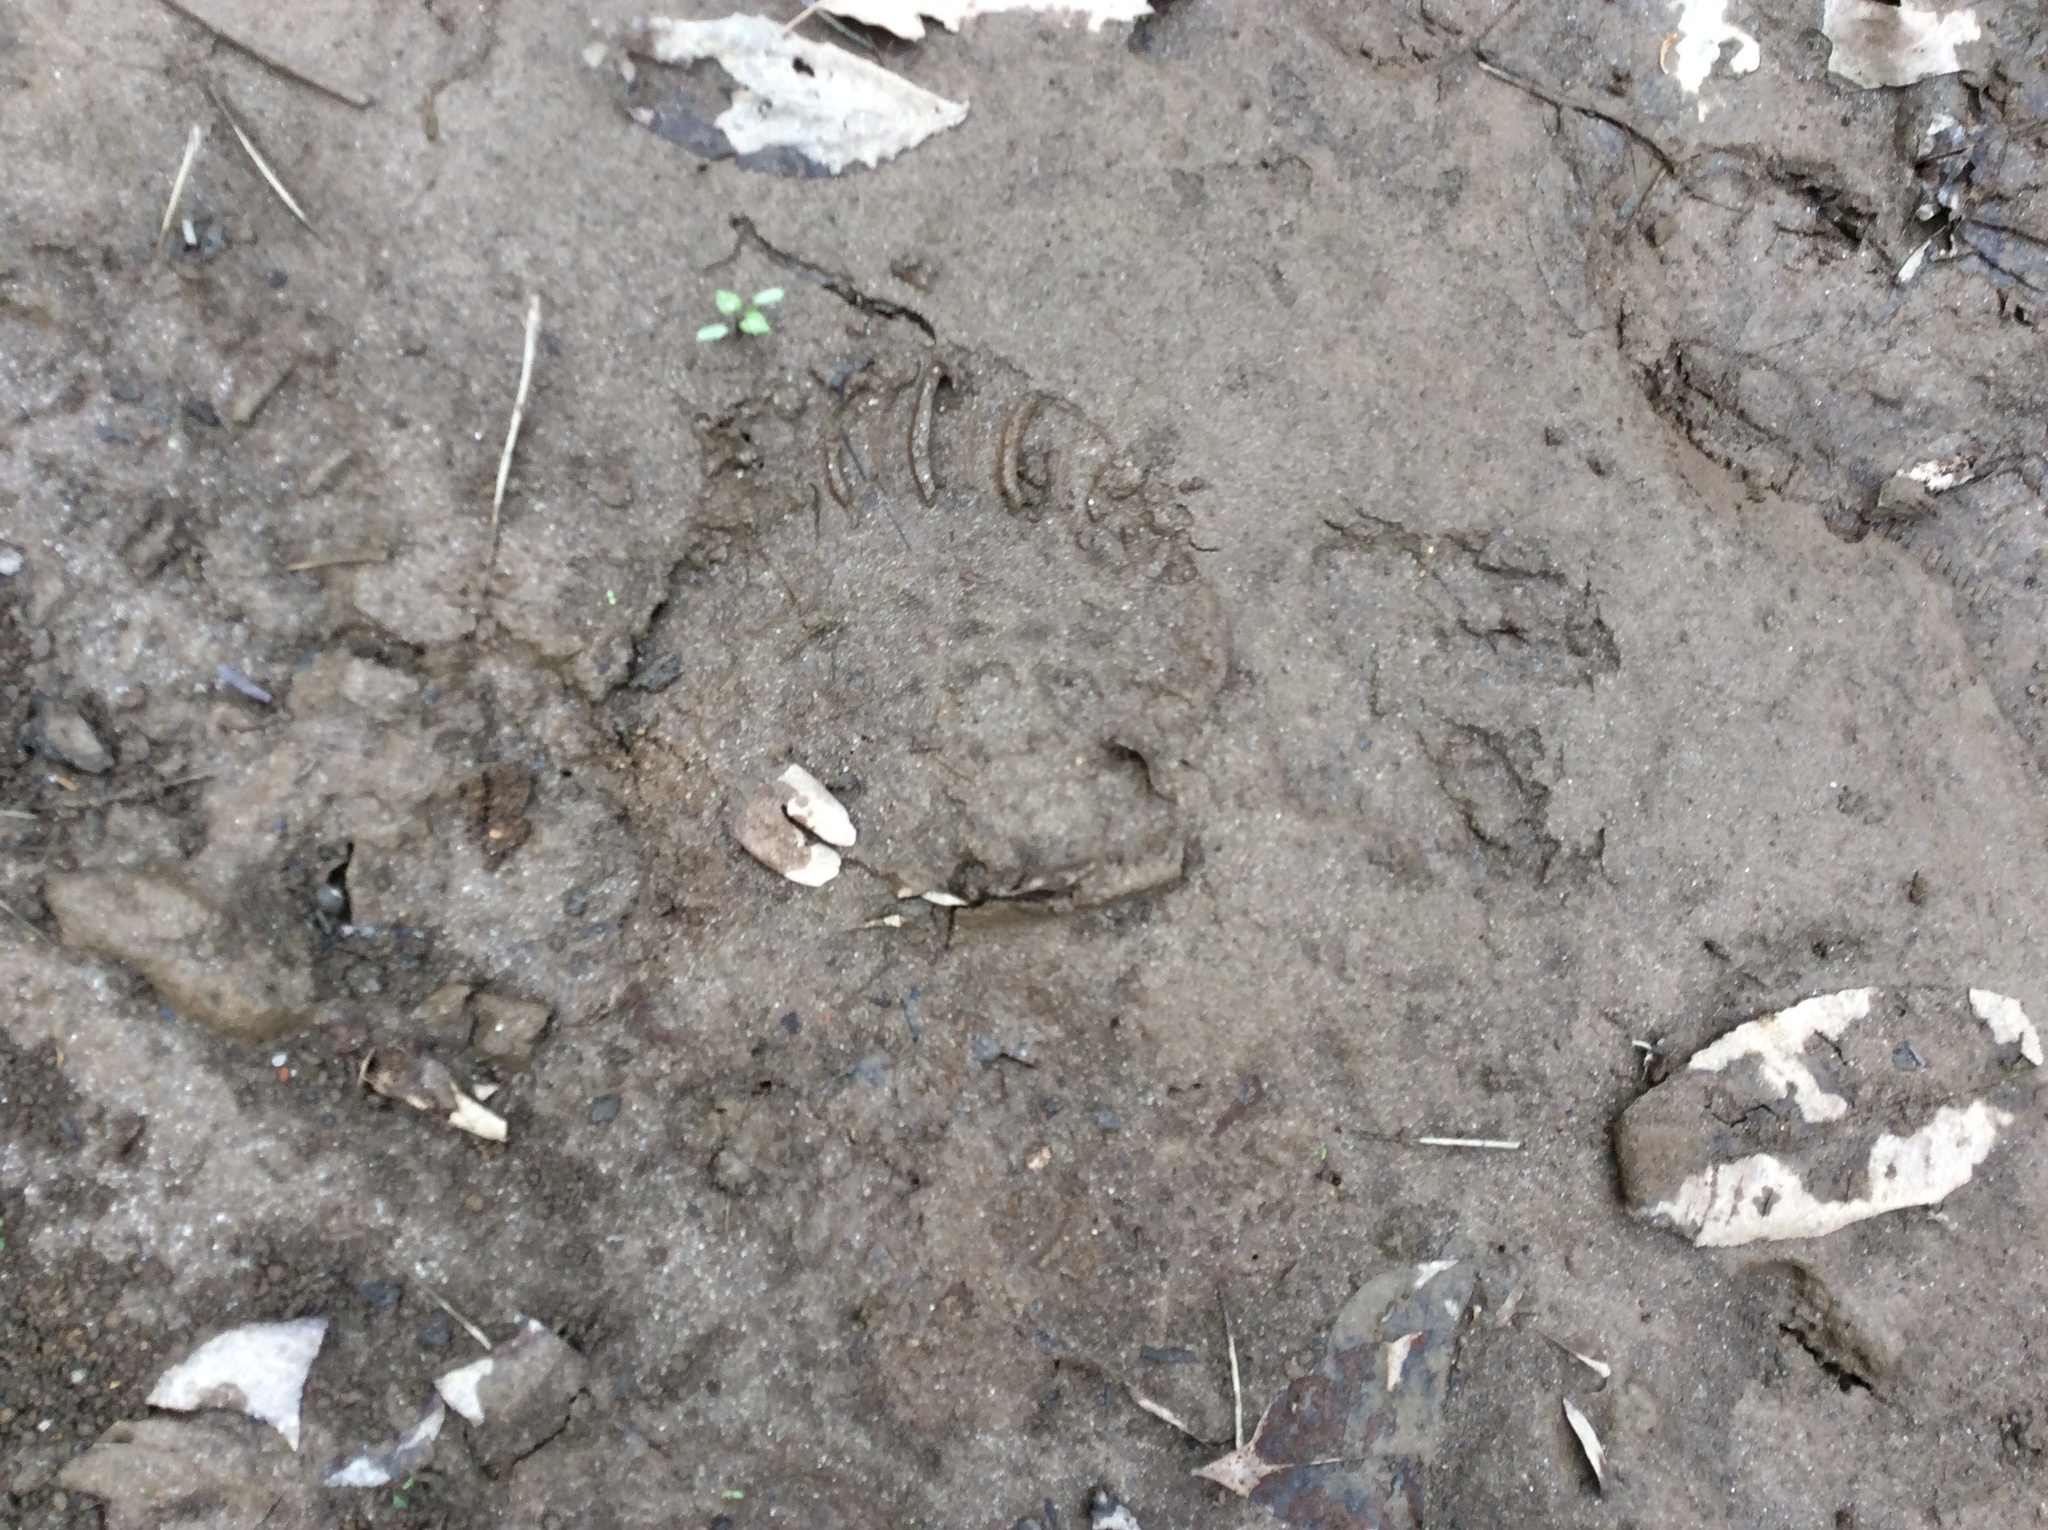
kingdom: Animalia
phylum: Chordata
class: Mammalia
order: Carnivora
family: Ursidae
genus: Ursus
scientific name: Ursus americanus
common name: American black bear
